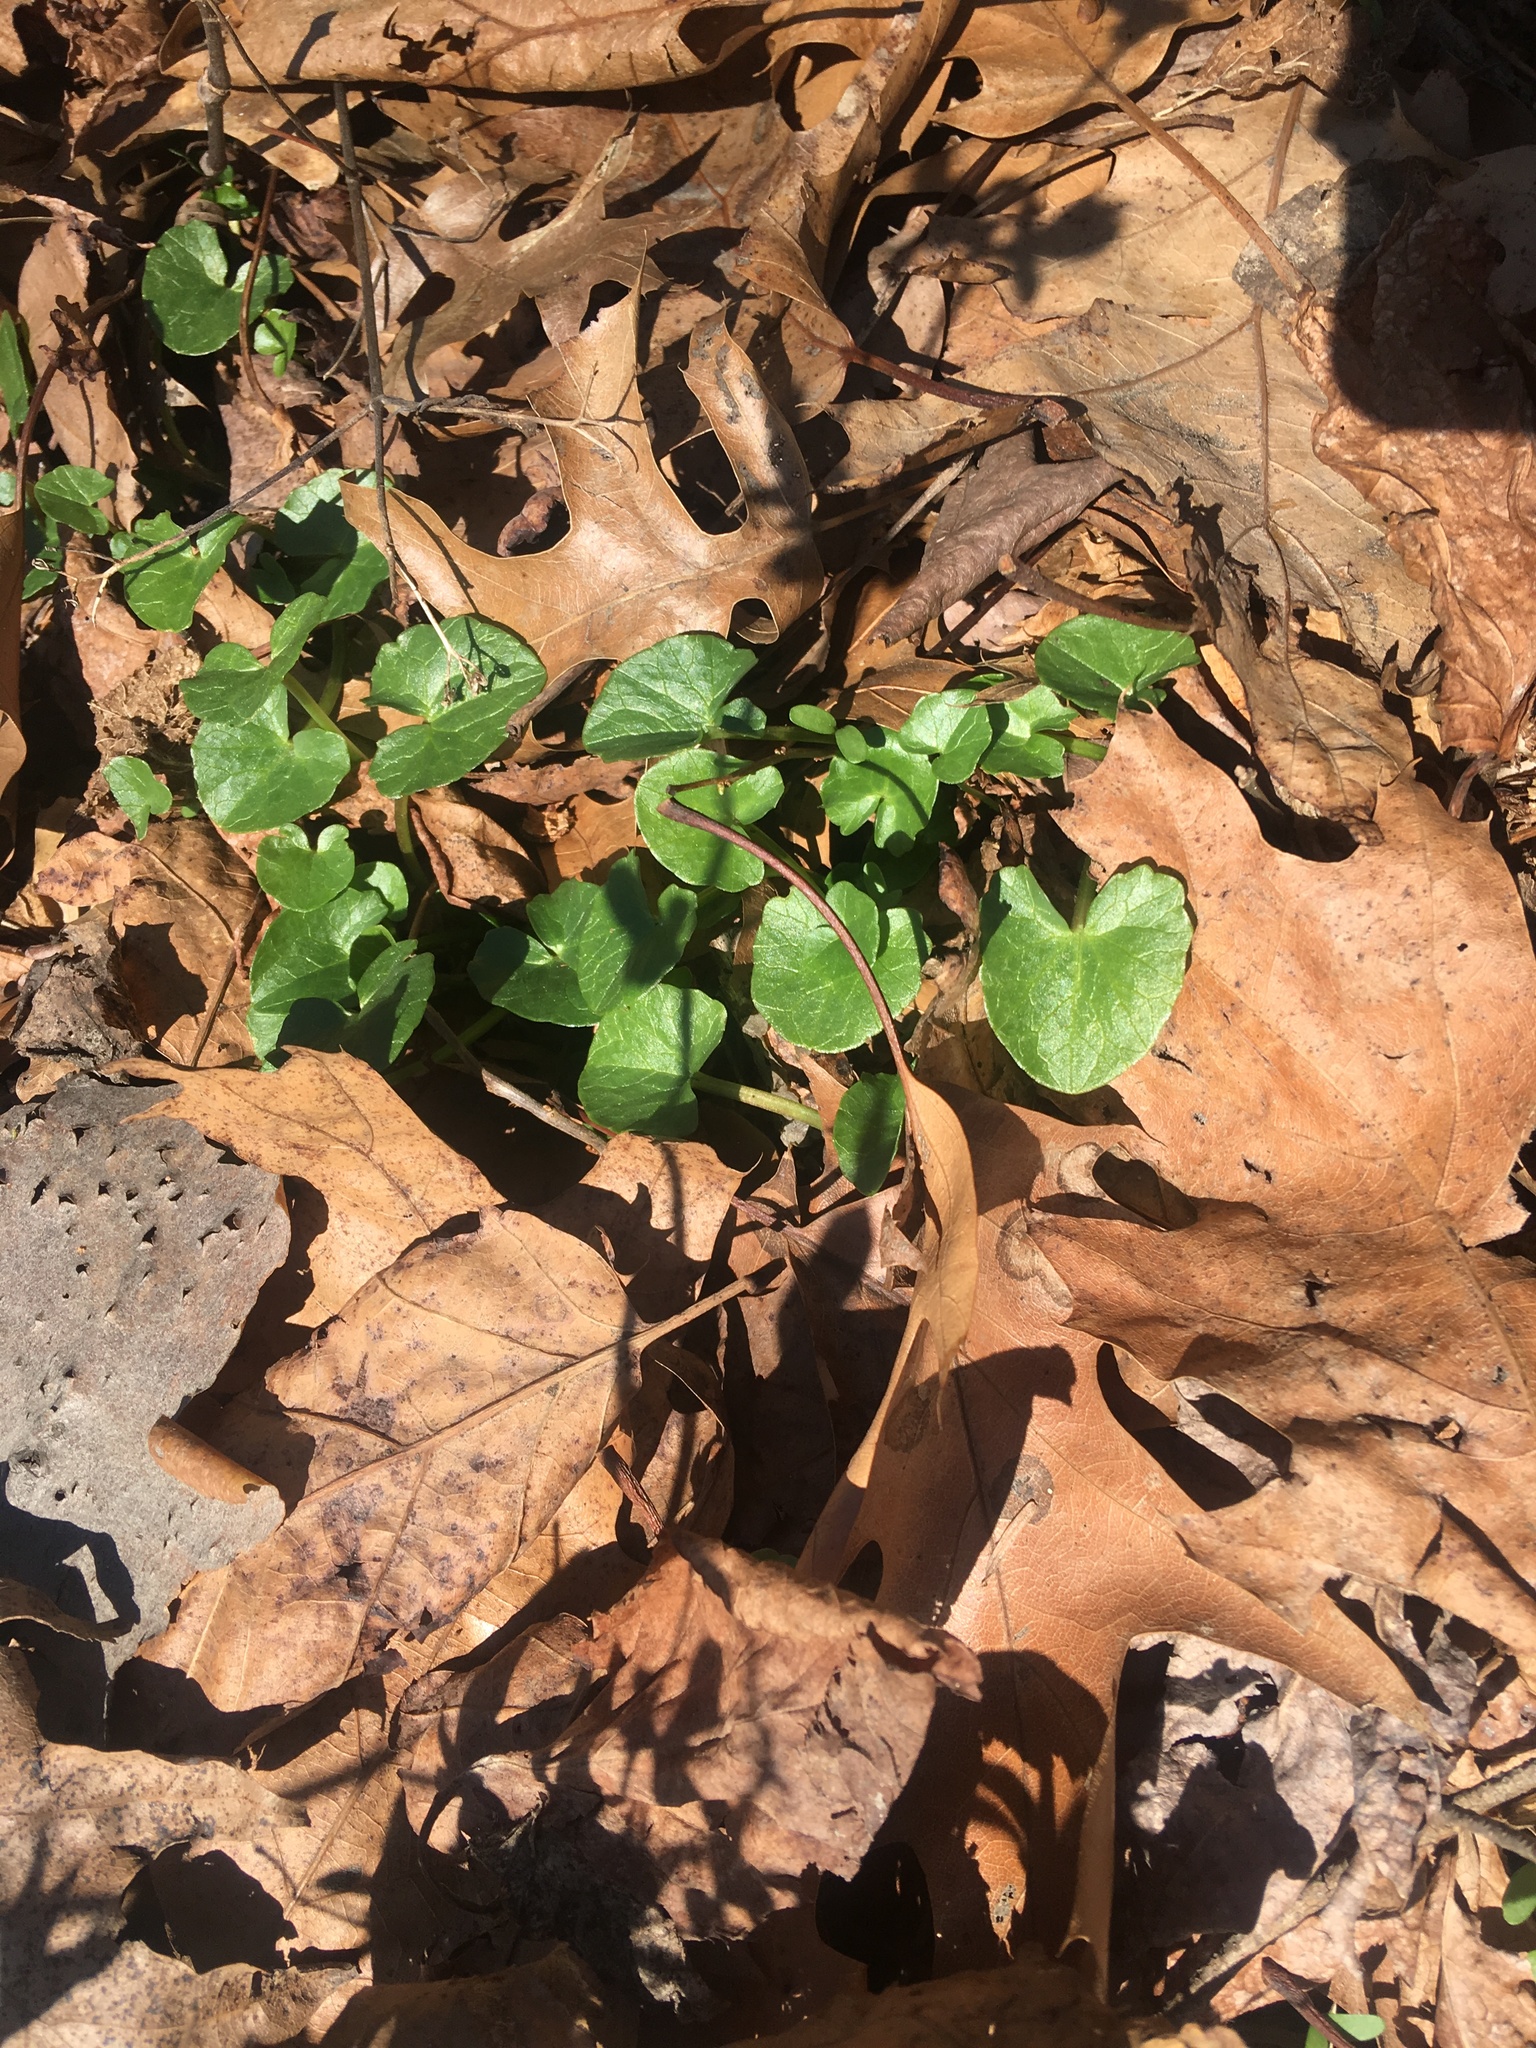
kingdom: Plantae
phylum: Tracheophyta
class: Magnoliopsida
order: Ranunculales
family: Ranunculaceae
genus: Ficaria
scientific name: Ficaria verna
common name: Lesser celandine
